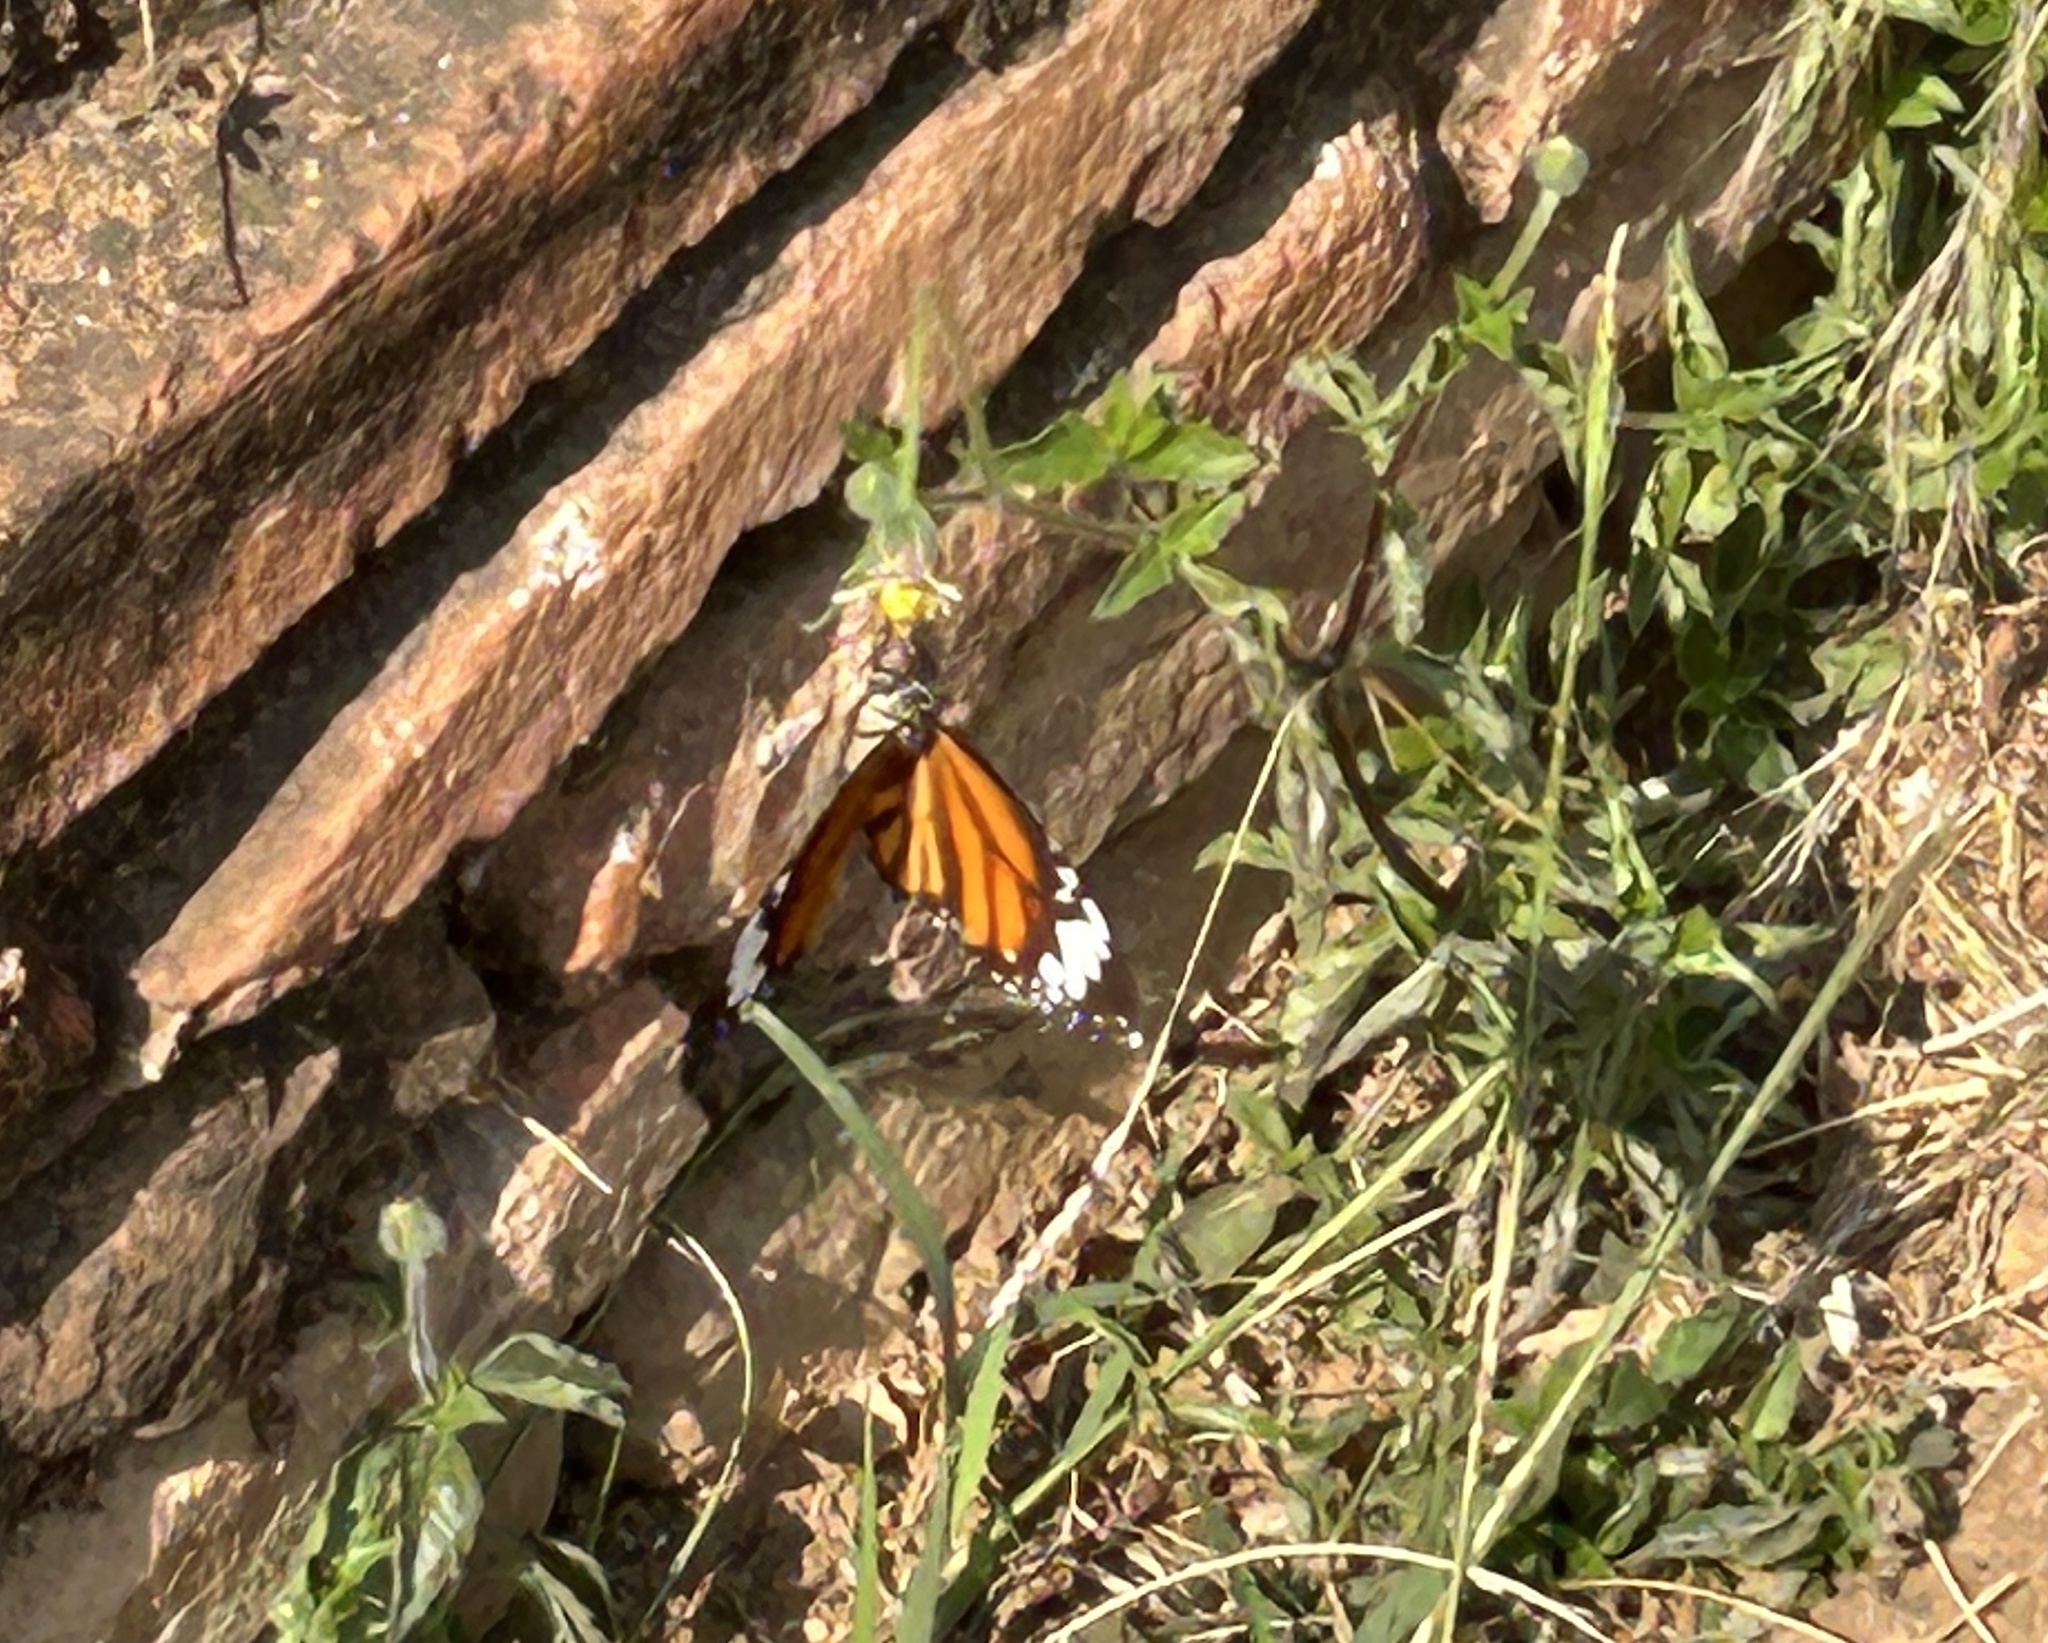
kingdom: Animalia
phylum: Arthropoda
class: Insecta
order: Lepidoptera
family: Nymphalidae
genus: Danaus
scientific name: Danaus genutia
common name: Common tiger butterfly
